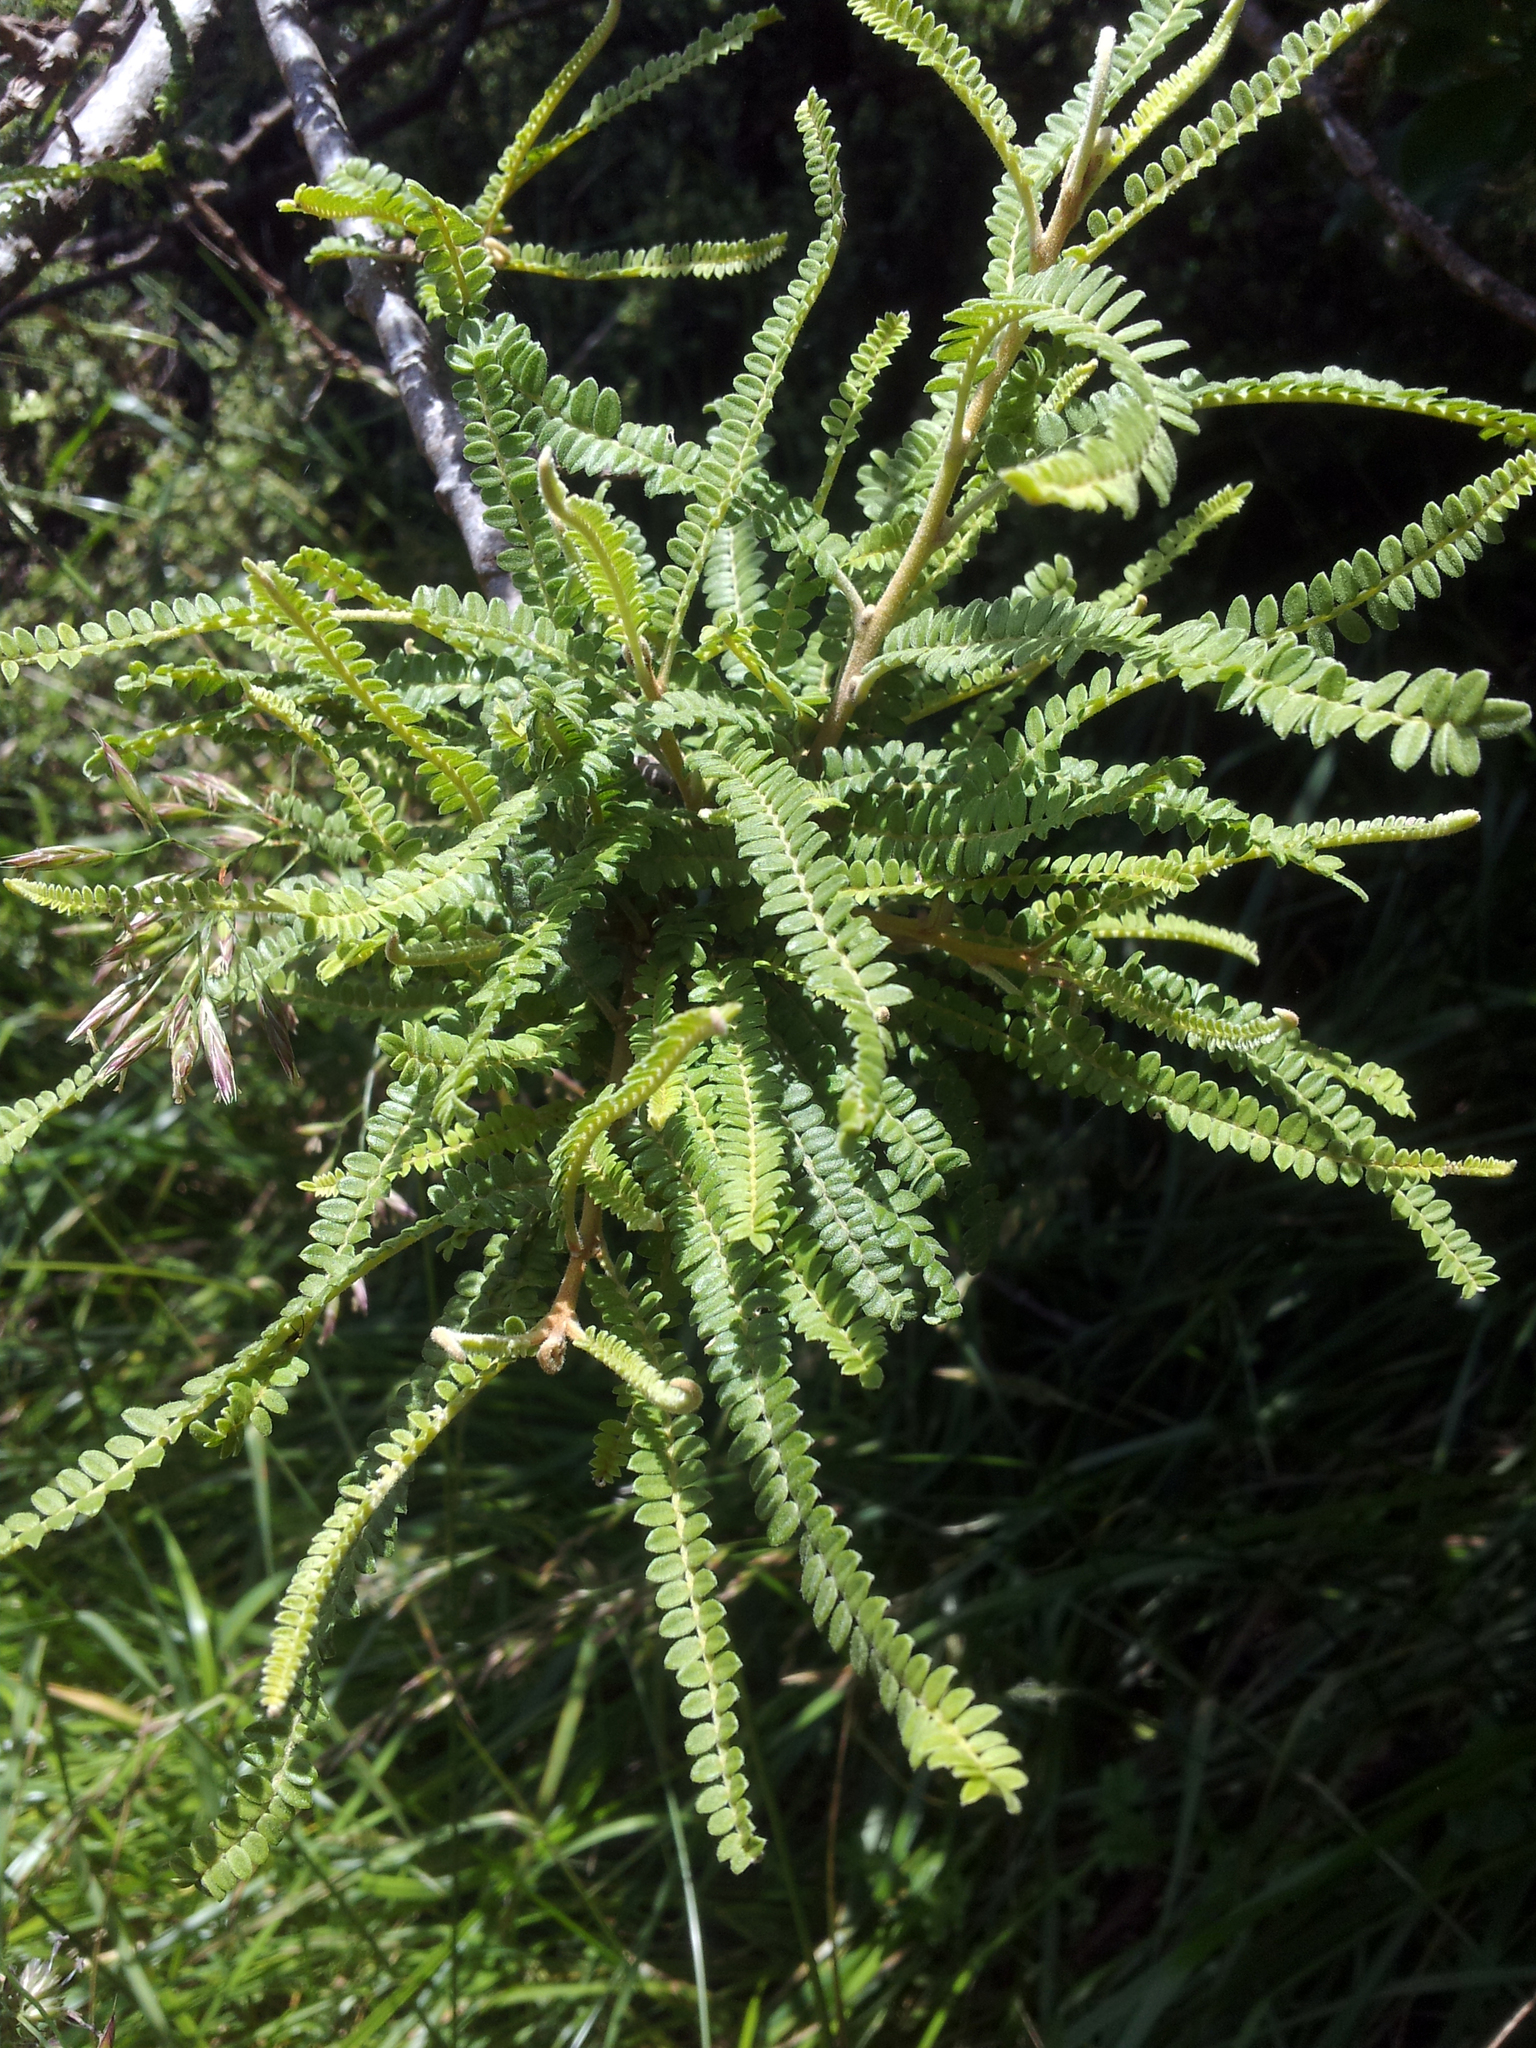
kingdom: Plantae
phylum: Tracheophyta
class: Magnoliopsida
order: Fabales
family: Fabaceae
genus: Sophora
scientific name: Sophora fulvida
